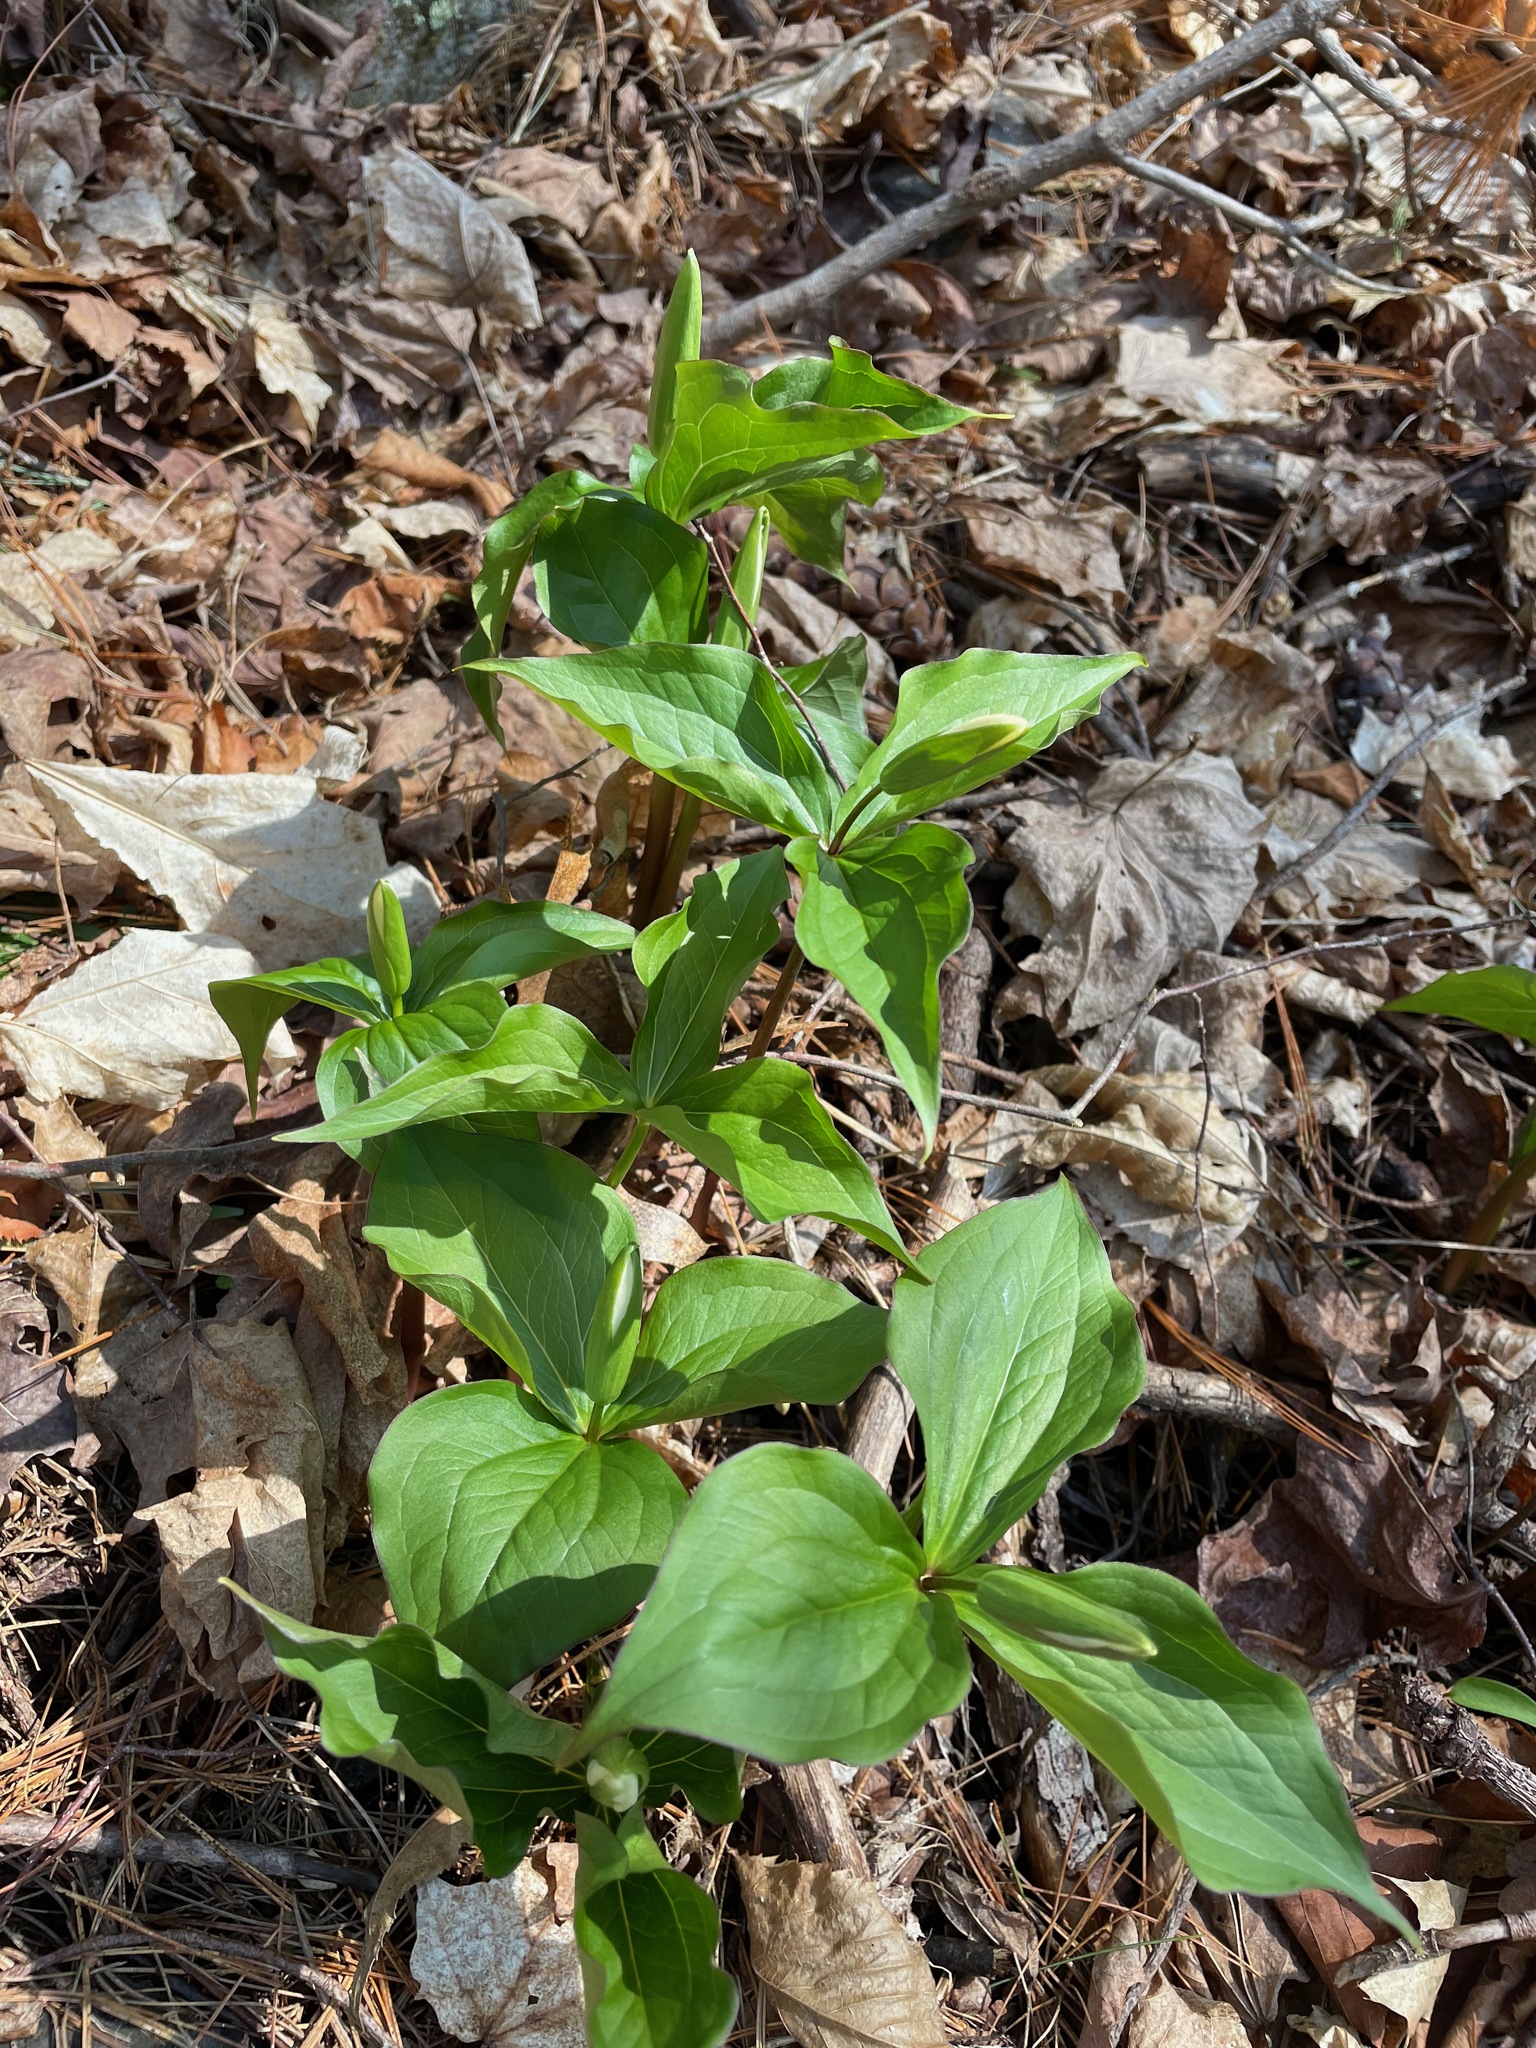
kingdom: Plantae
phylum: Tracheophyta
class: Liliopsida
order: Liliales
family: Melanthiaceae
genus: Trillium
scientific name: Trillium grandiflorum
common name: Great white trillium
